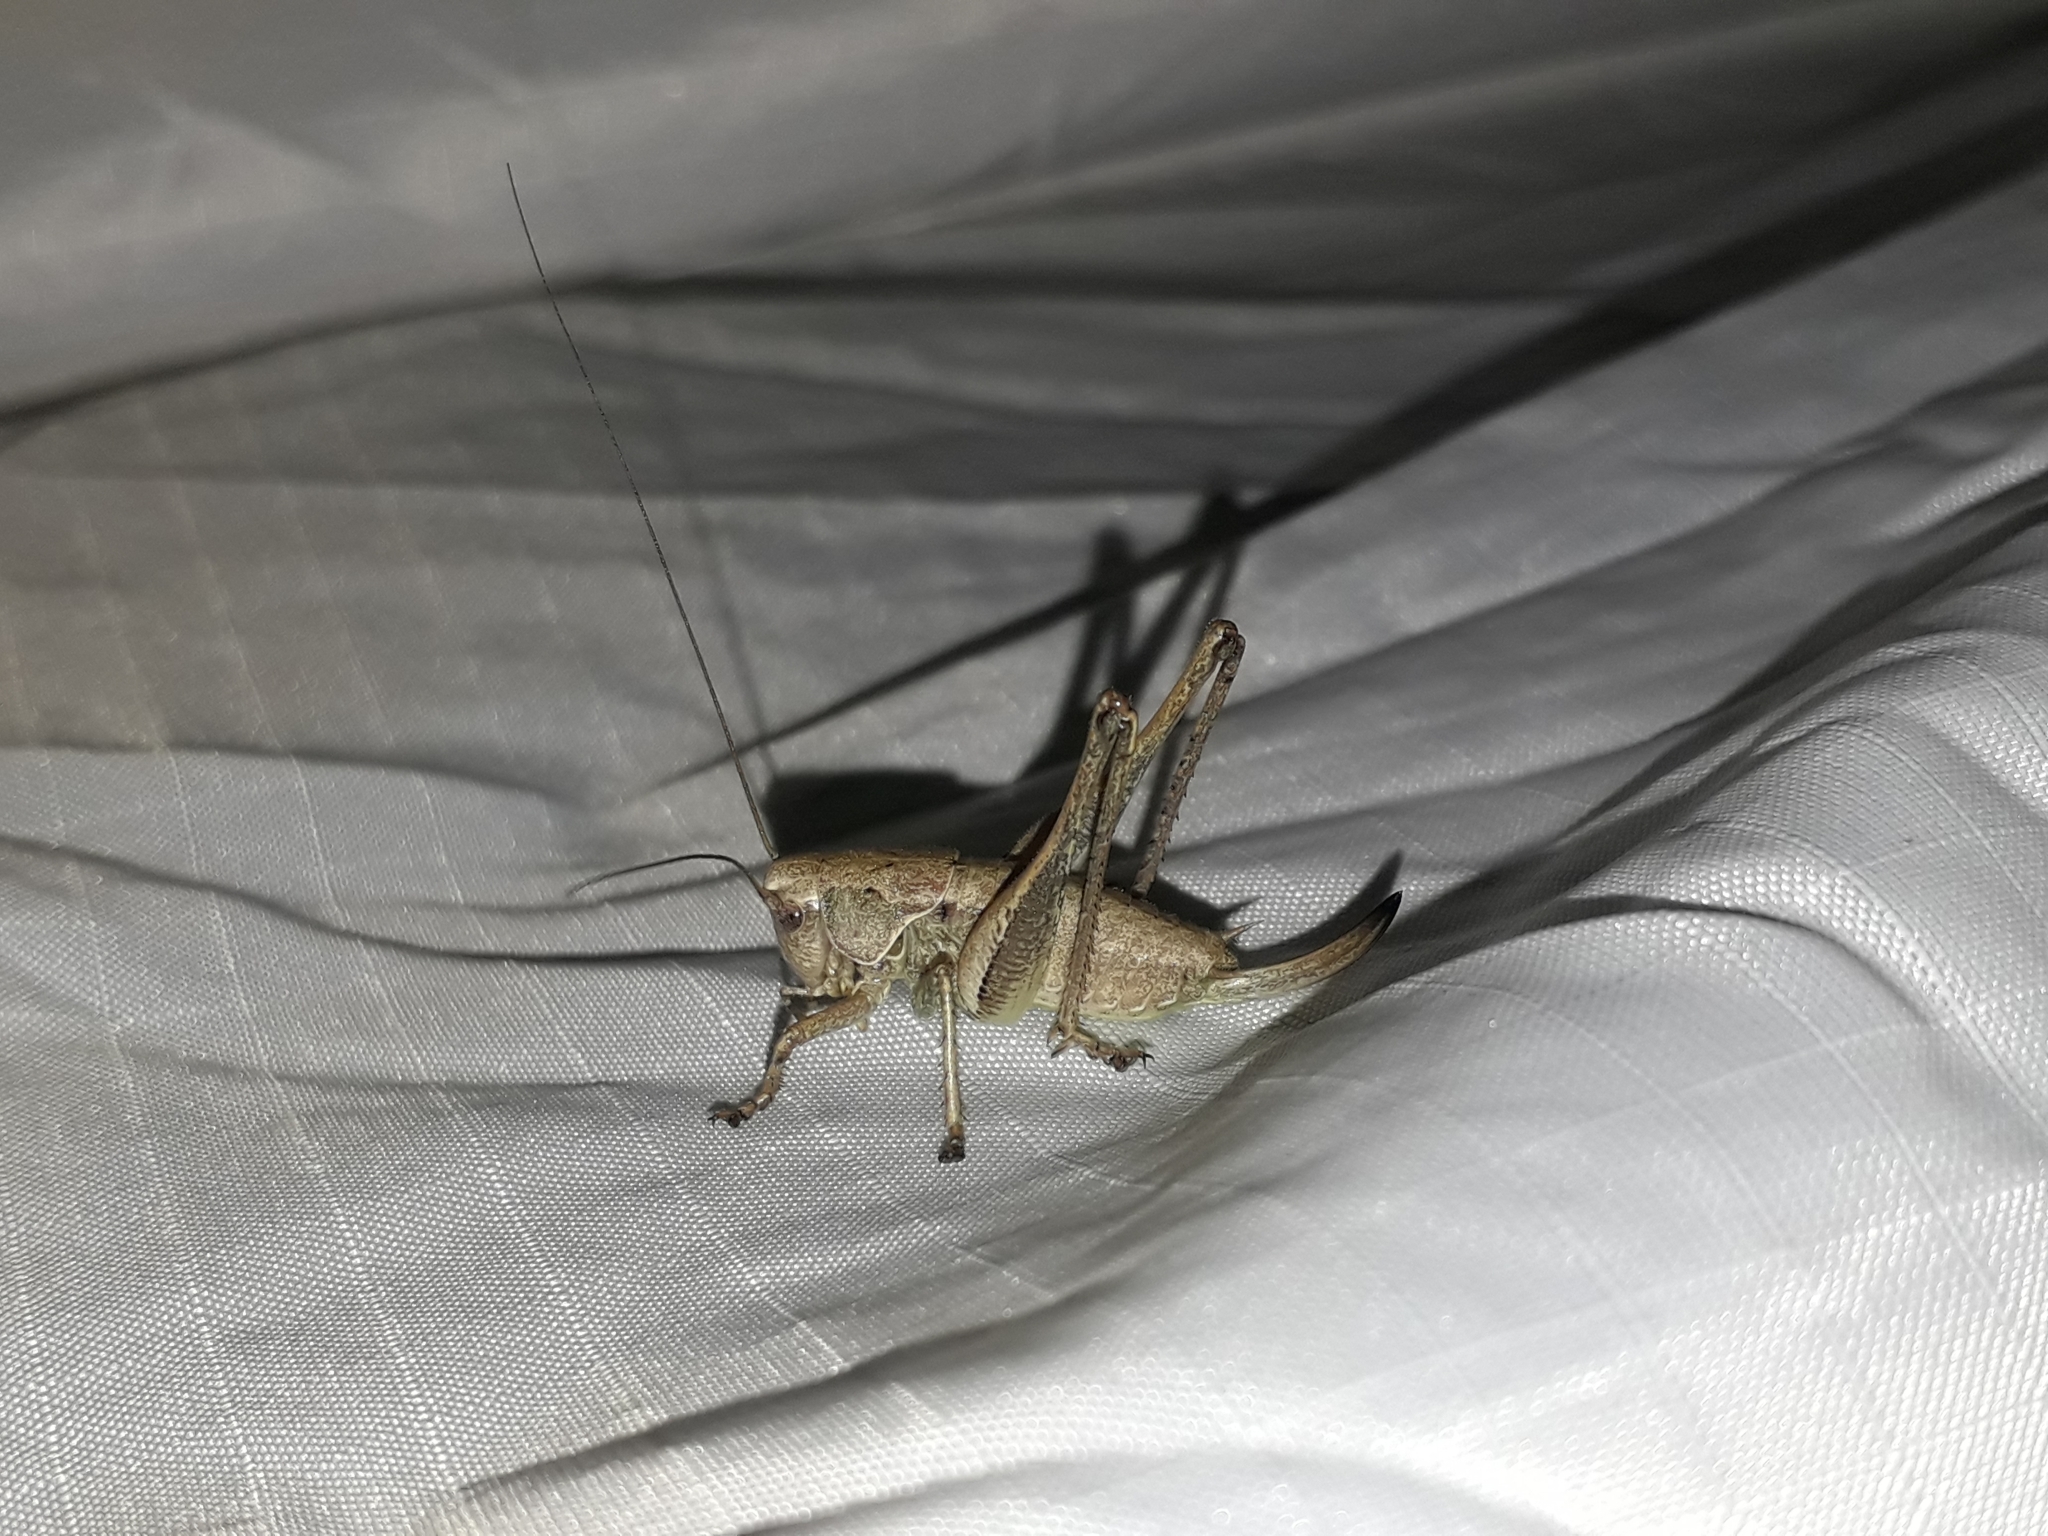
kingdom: Animalia
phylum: Arthropoda
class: Insecta
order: Orthoptera
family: Tettigoniidae
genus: Pholidoptera
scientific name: Pholidoptera griseoaptera
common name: Dark bush-cricket
